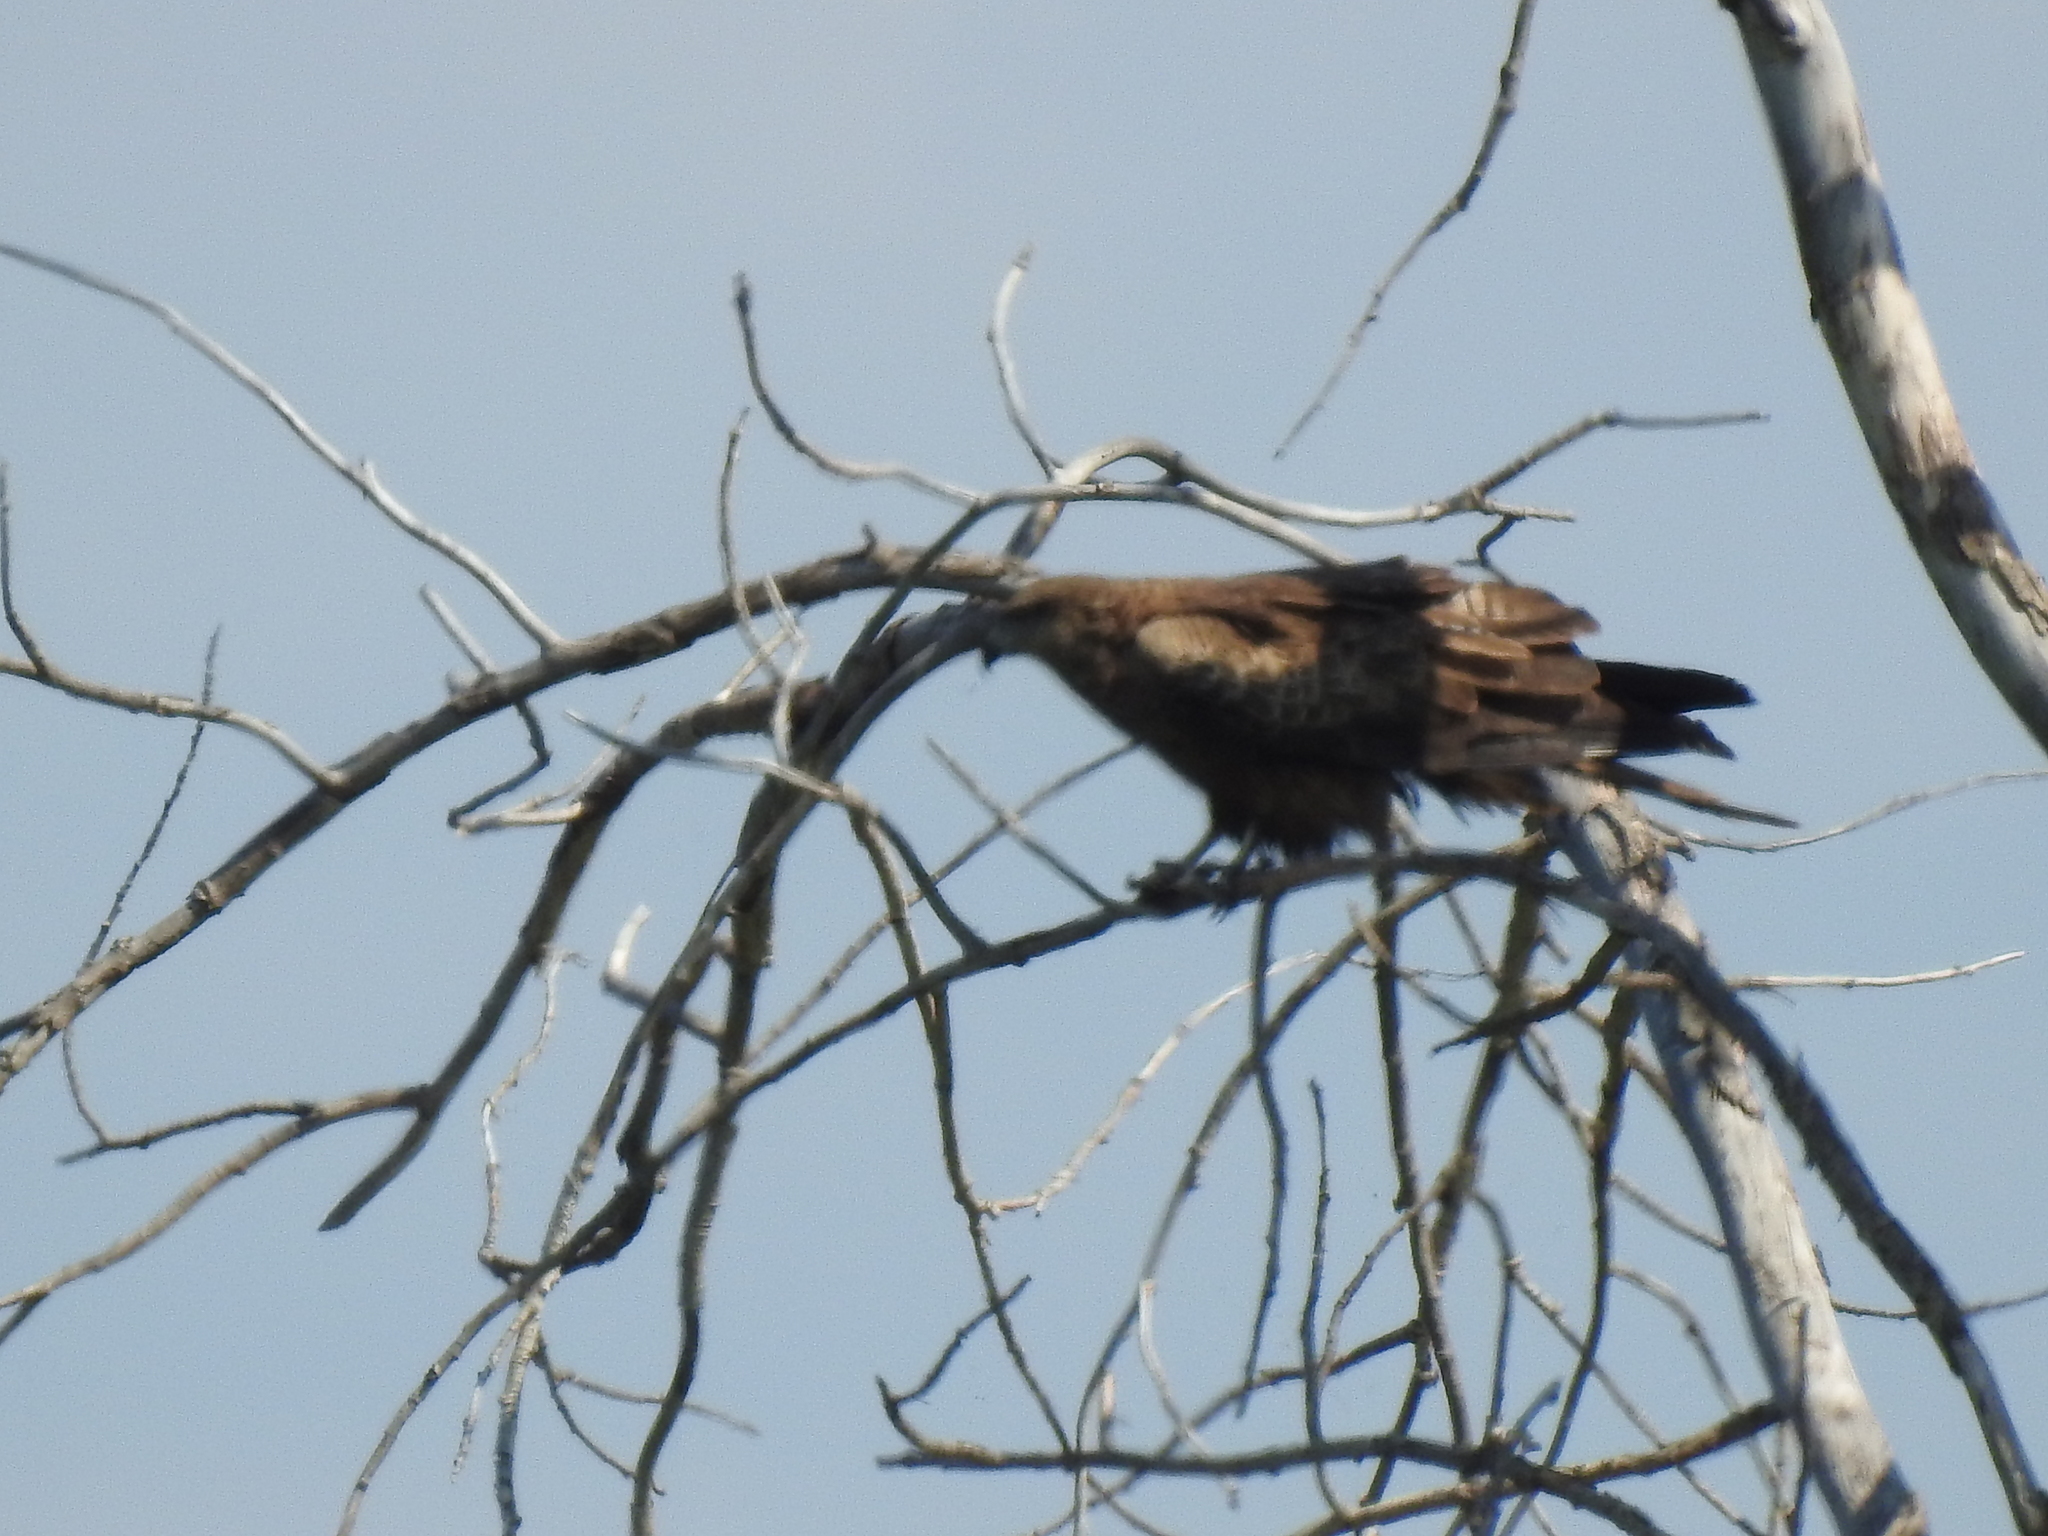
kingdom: Animalia
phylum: Chordata
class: Aves
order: Accipitriformes
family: Accipitridae
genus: Milvus
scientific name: Milvus migrans
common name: Black kite
